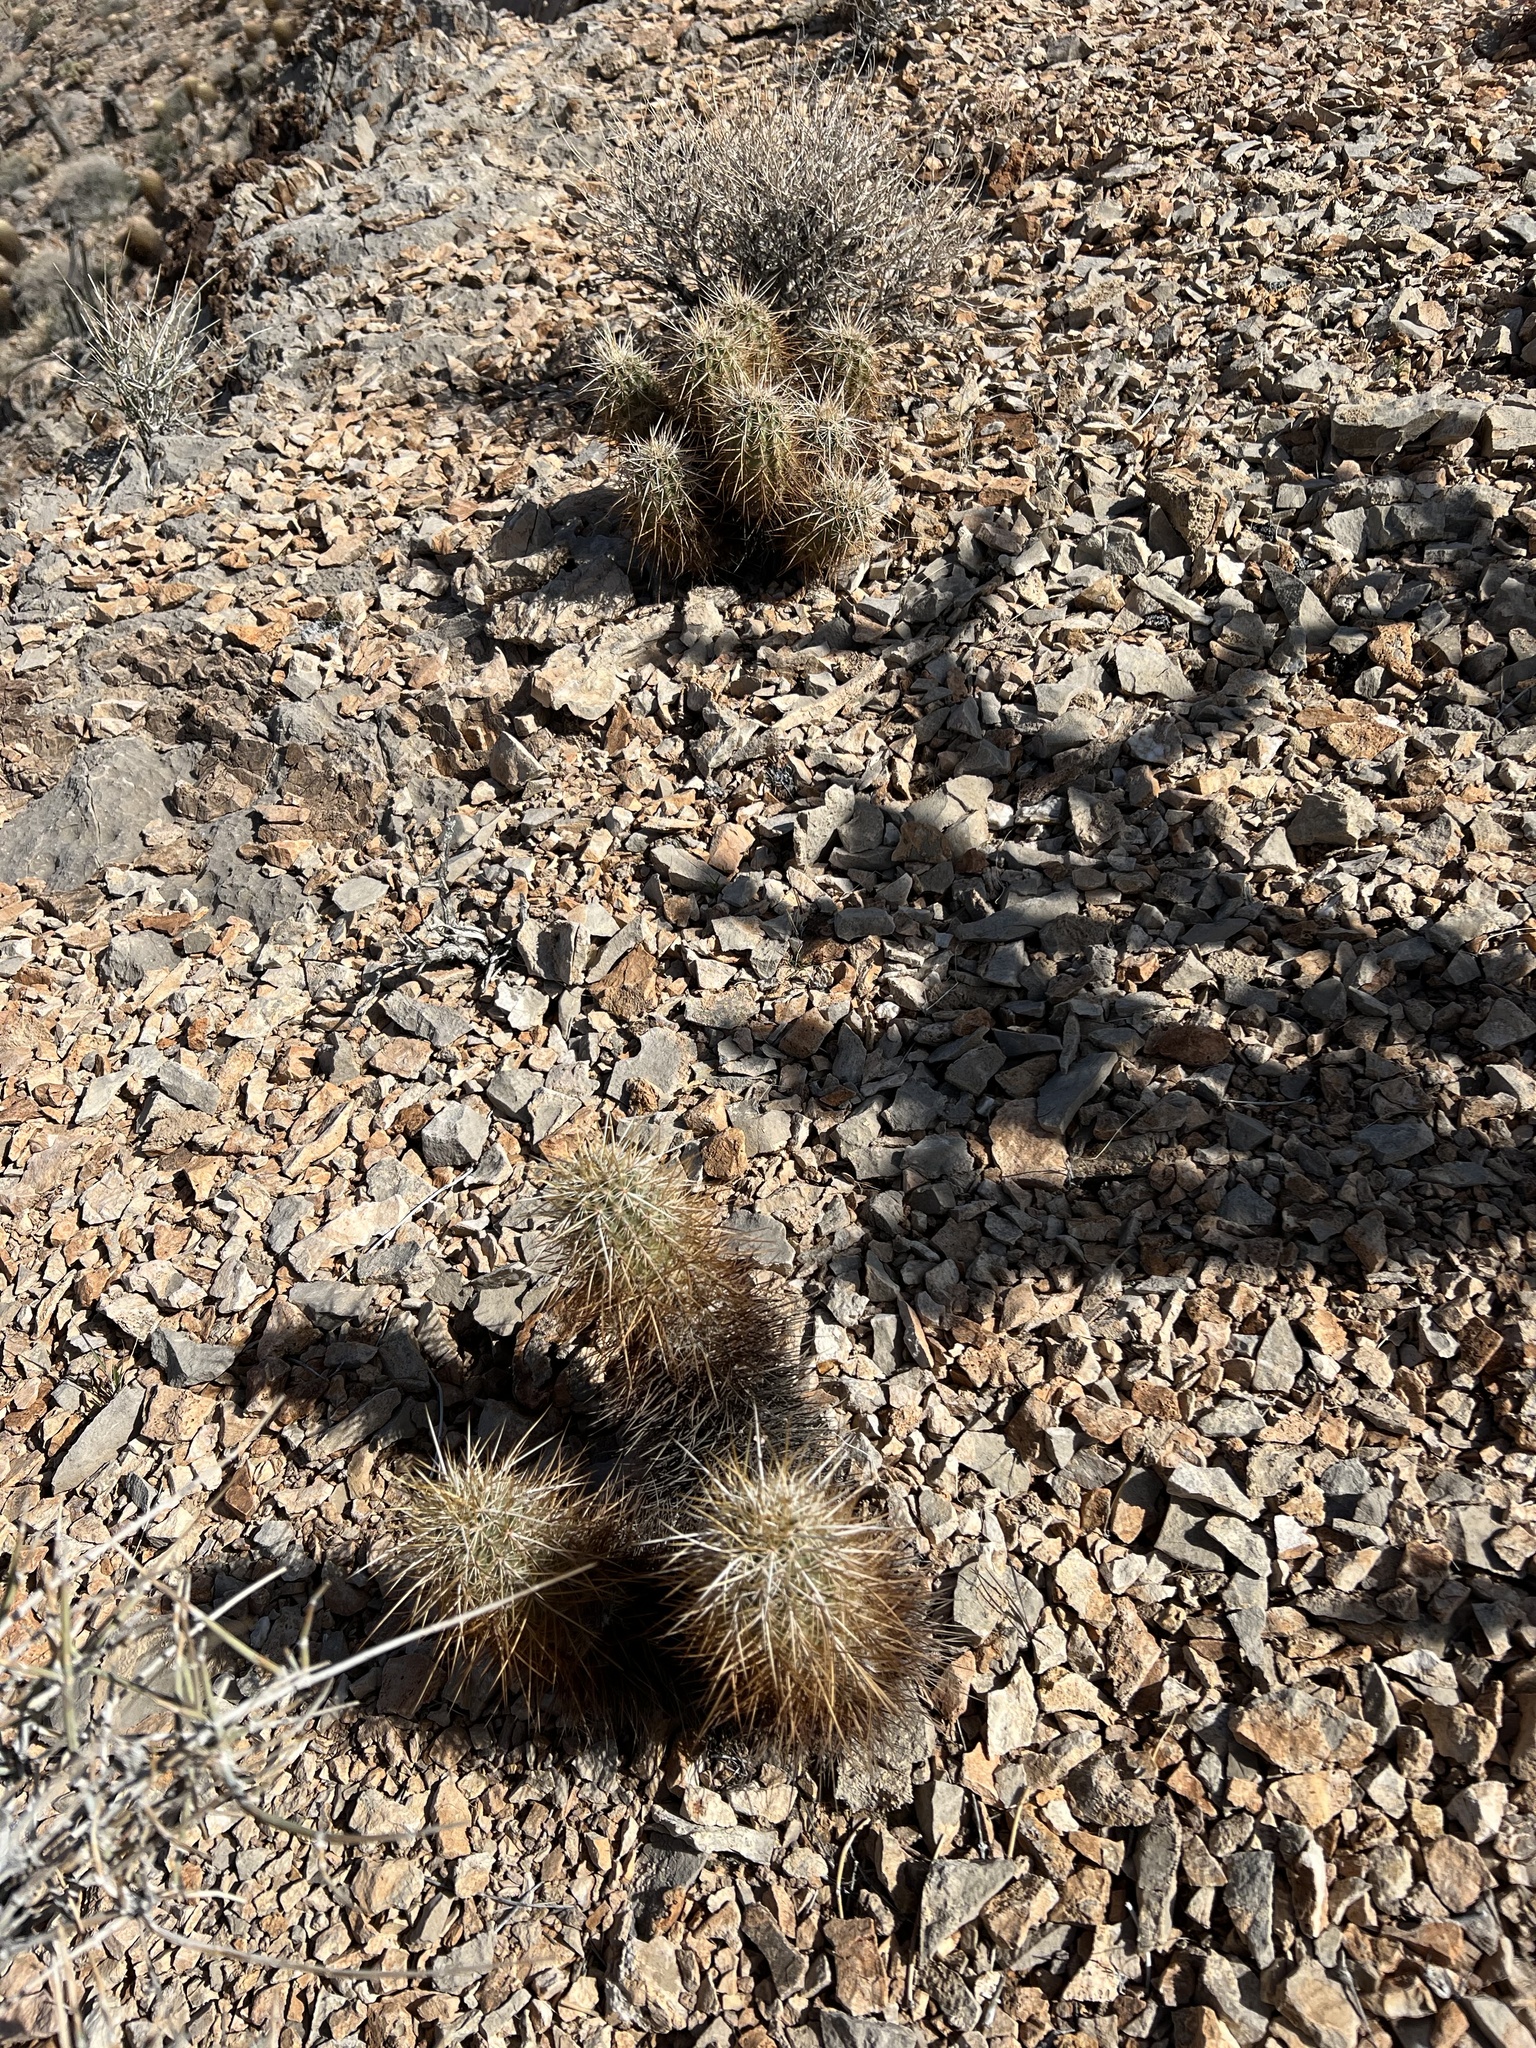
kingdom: Plantae
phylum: Tracheophyta
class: Magnoliopsida
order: Caryophyllales
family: Cactaceae
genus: Echinocereus
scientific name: Echinocereus engelmannii
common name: Engelmann's hedgehog cactus
